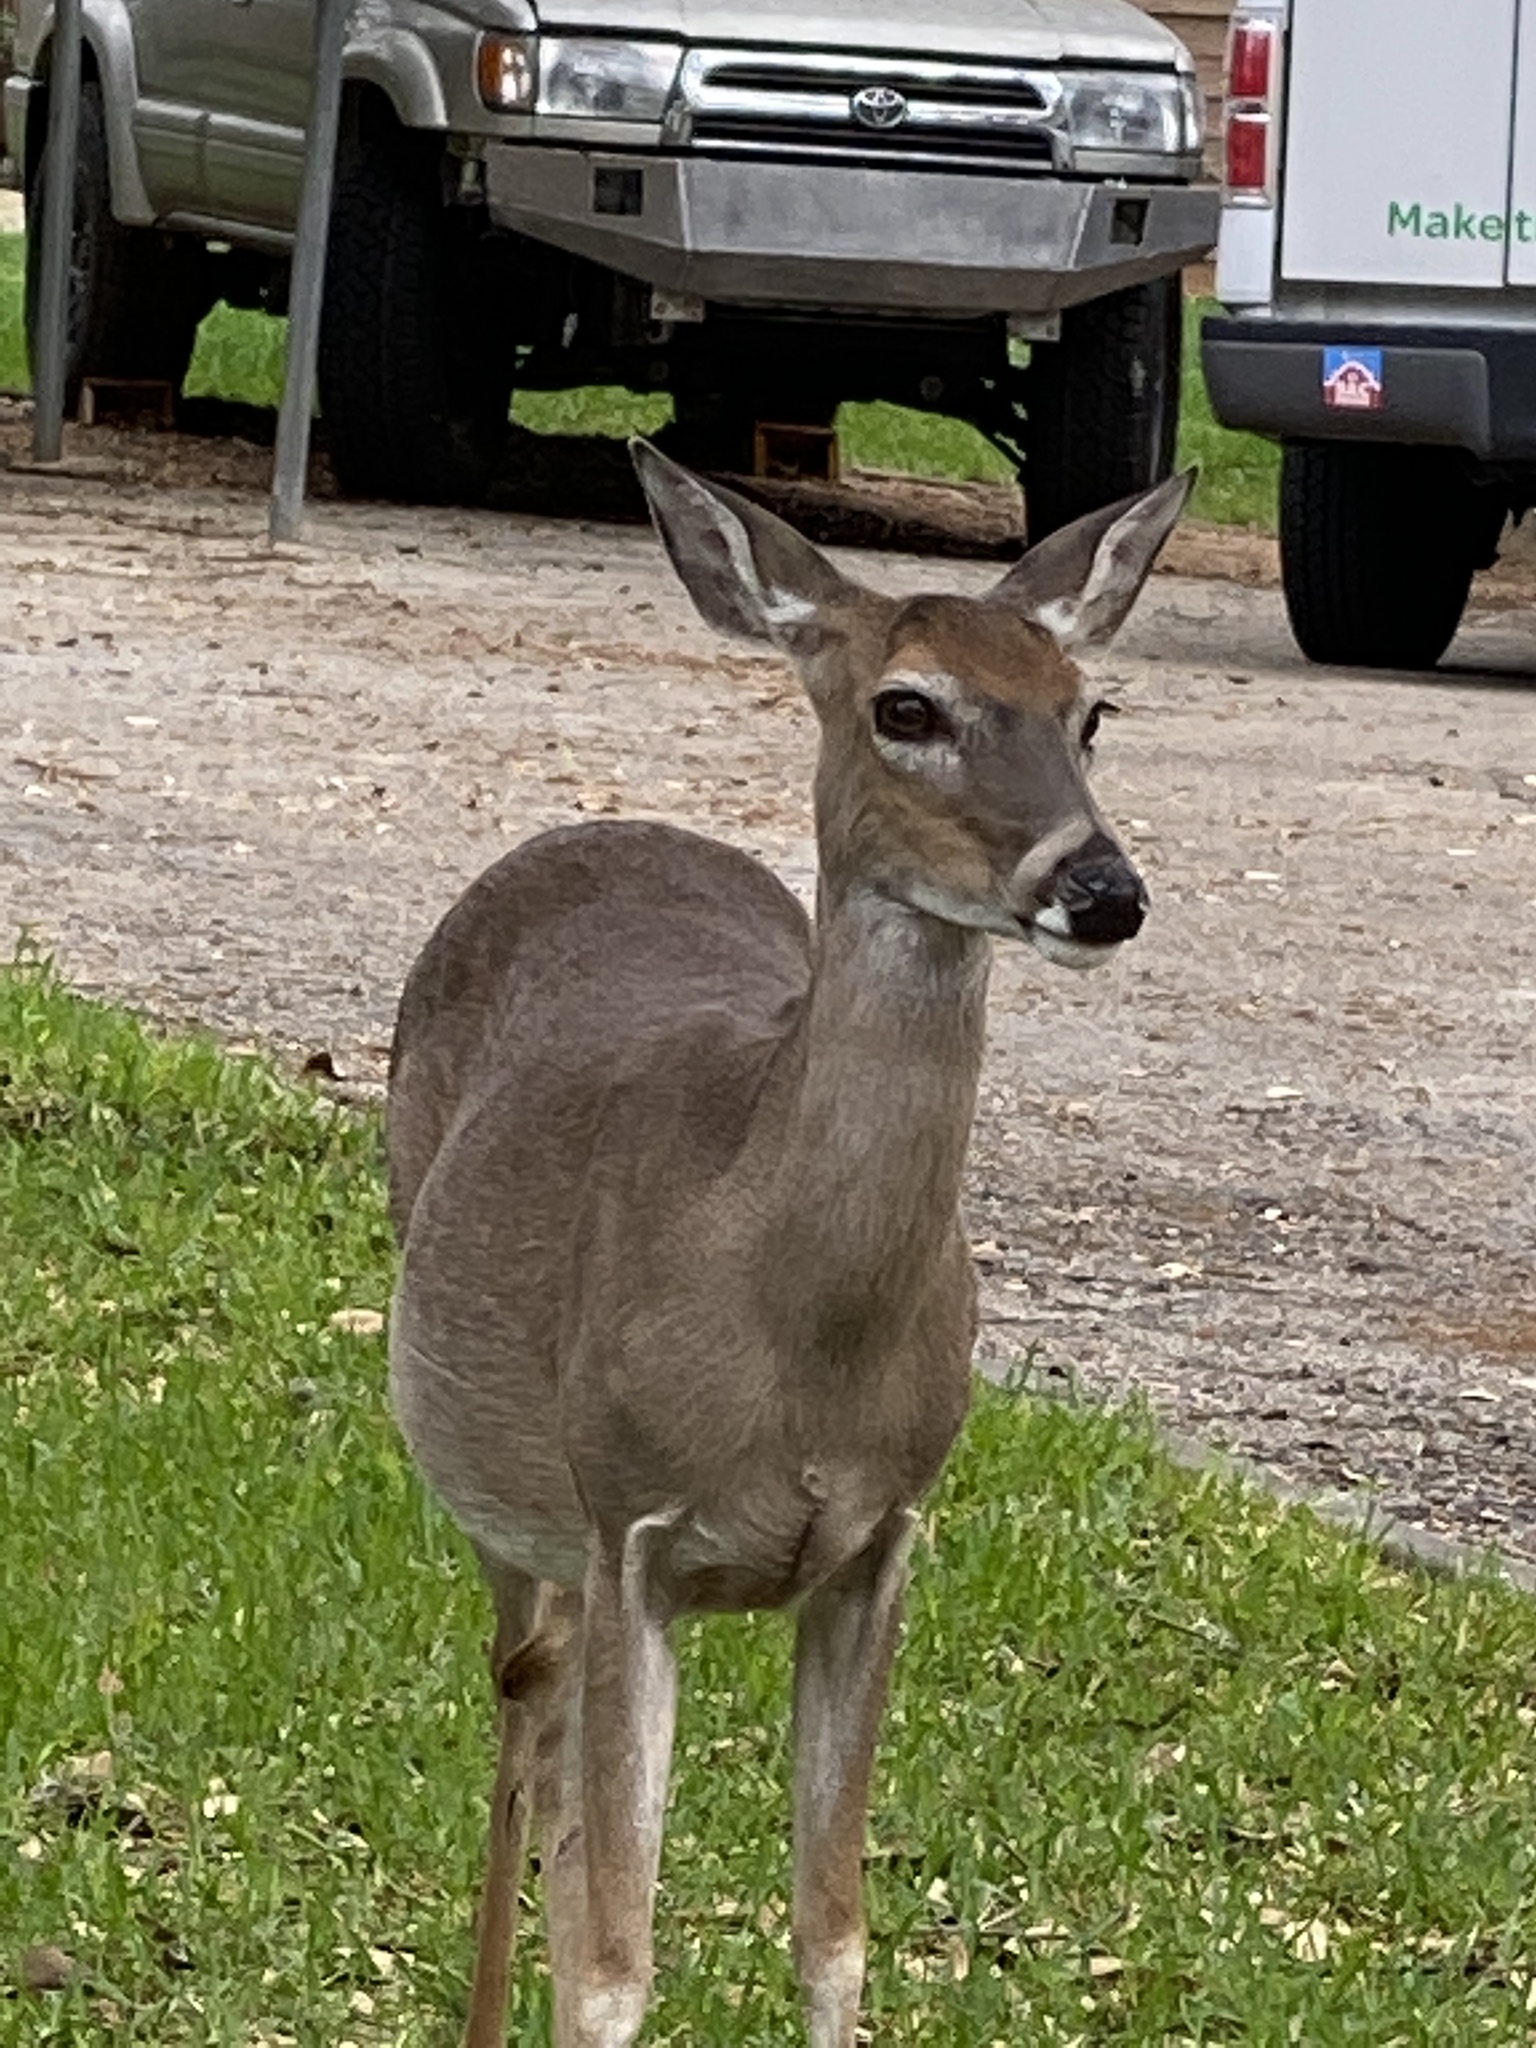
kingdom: Animalia
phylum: Chordata
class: Mammalia
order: Artiodactyla
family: Cervidae
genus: Odocoileus
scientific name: Odocoileus virginianus
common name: White-tailed deer
